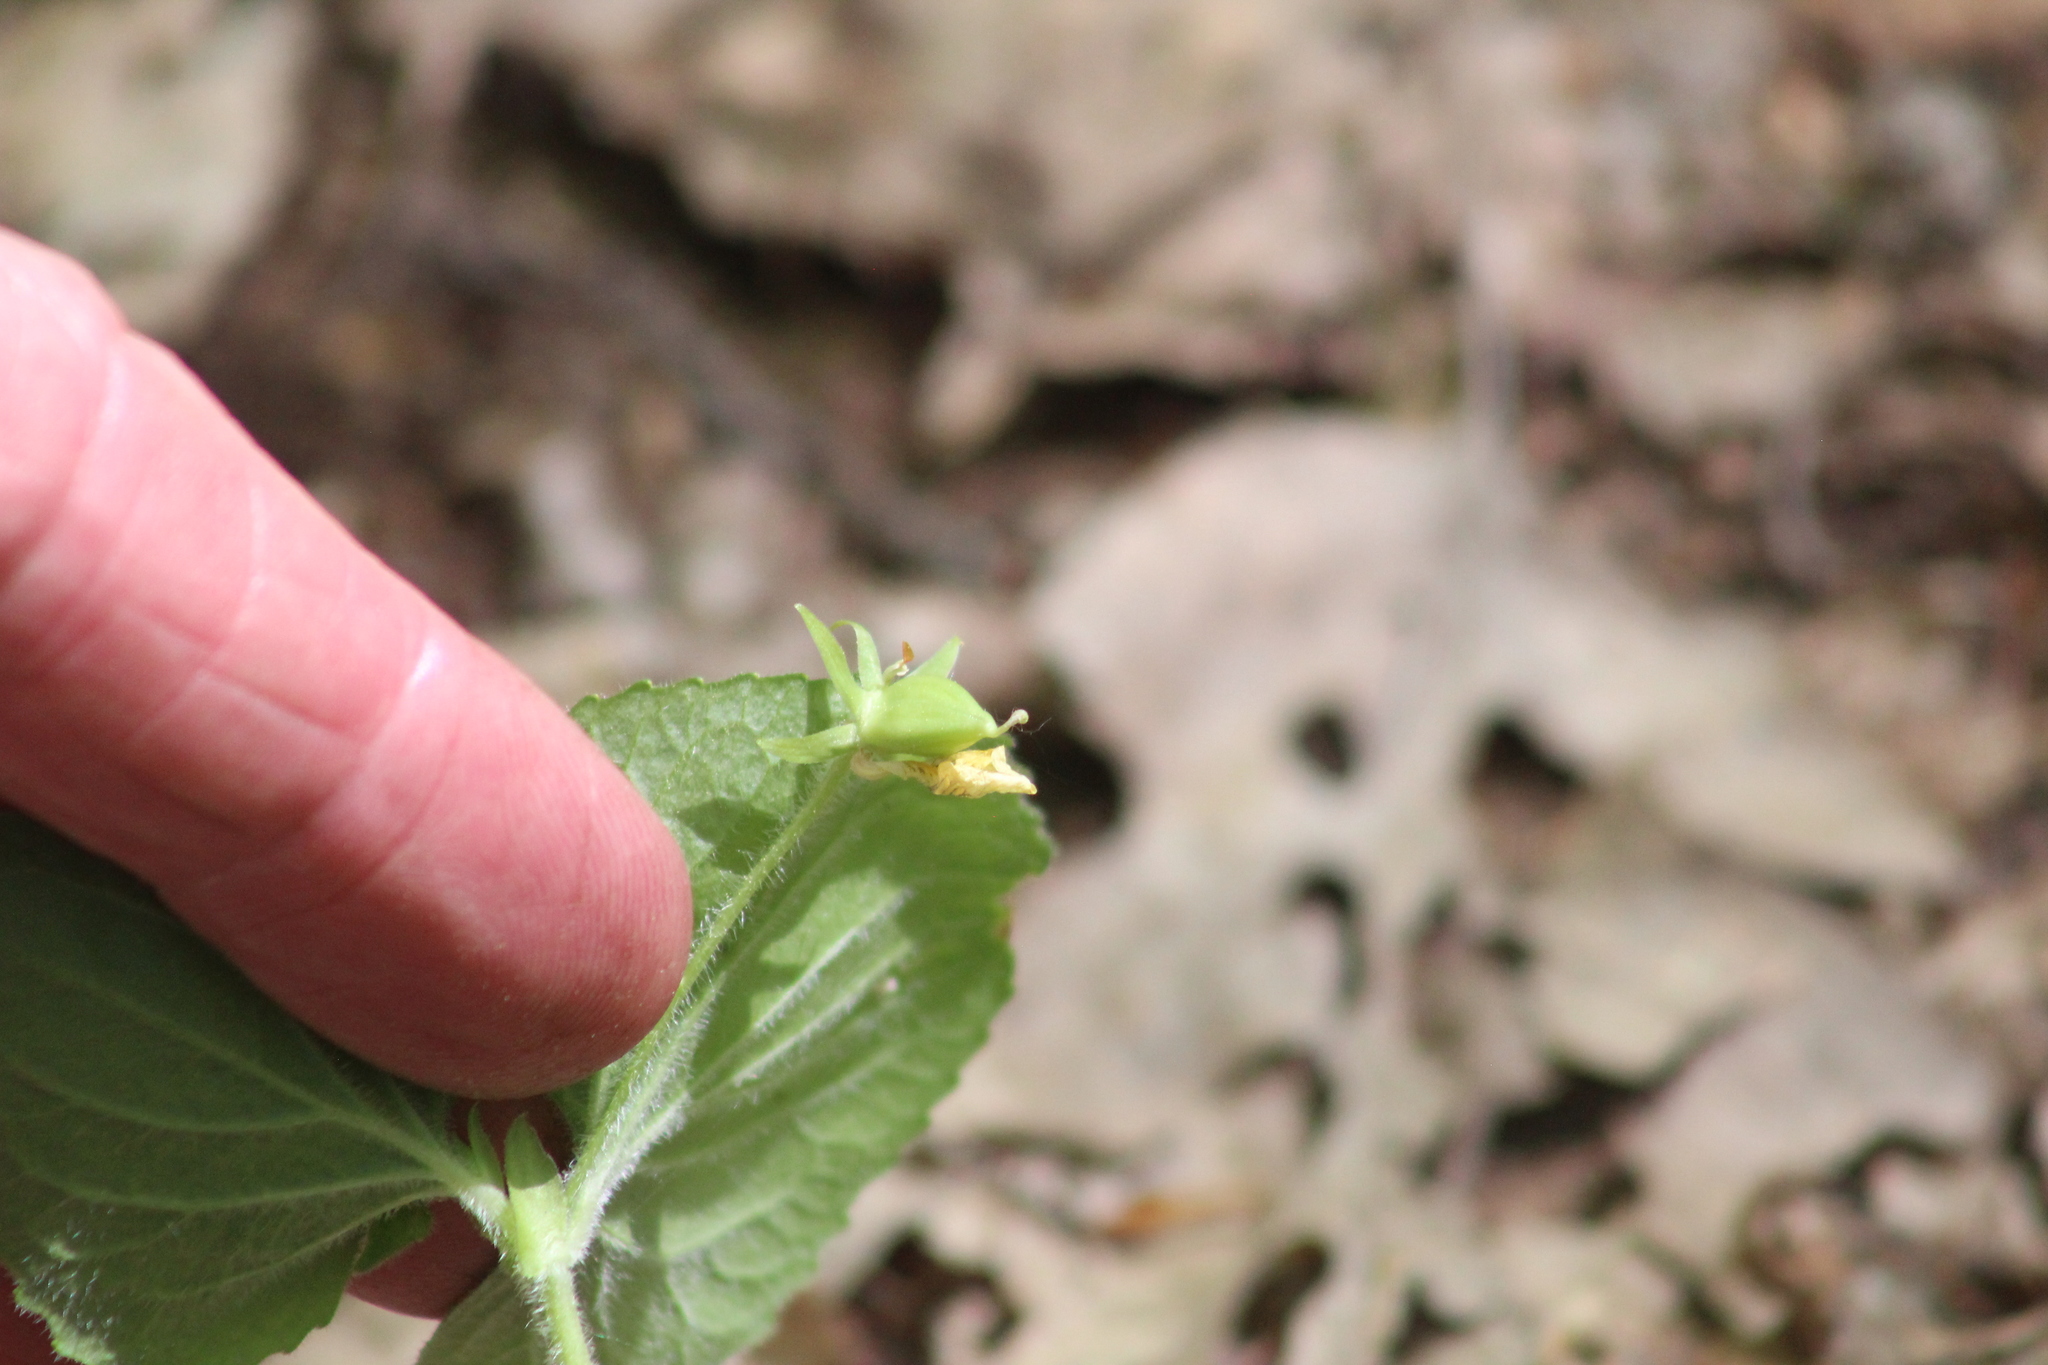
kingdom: Plantae
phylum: Tracheophyta
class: Magnoliopsida
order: Malpighiales
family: Violaceae
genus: Viola
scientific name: Viola pubescens
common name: Yellow forest violet
